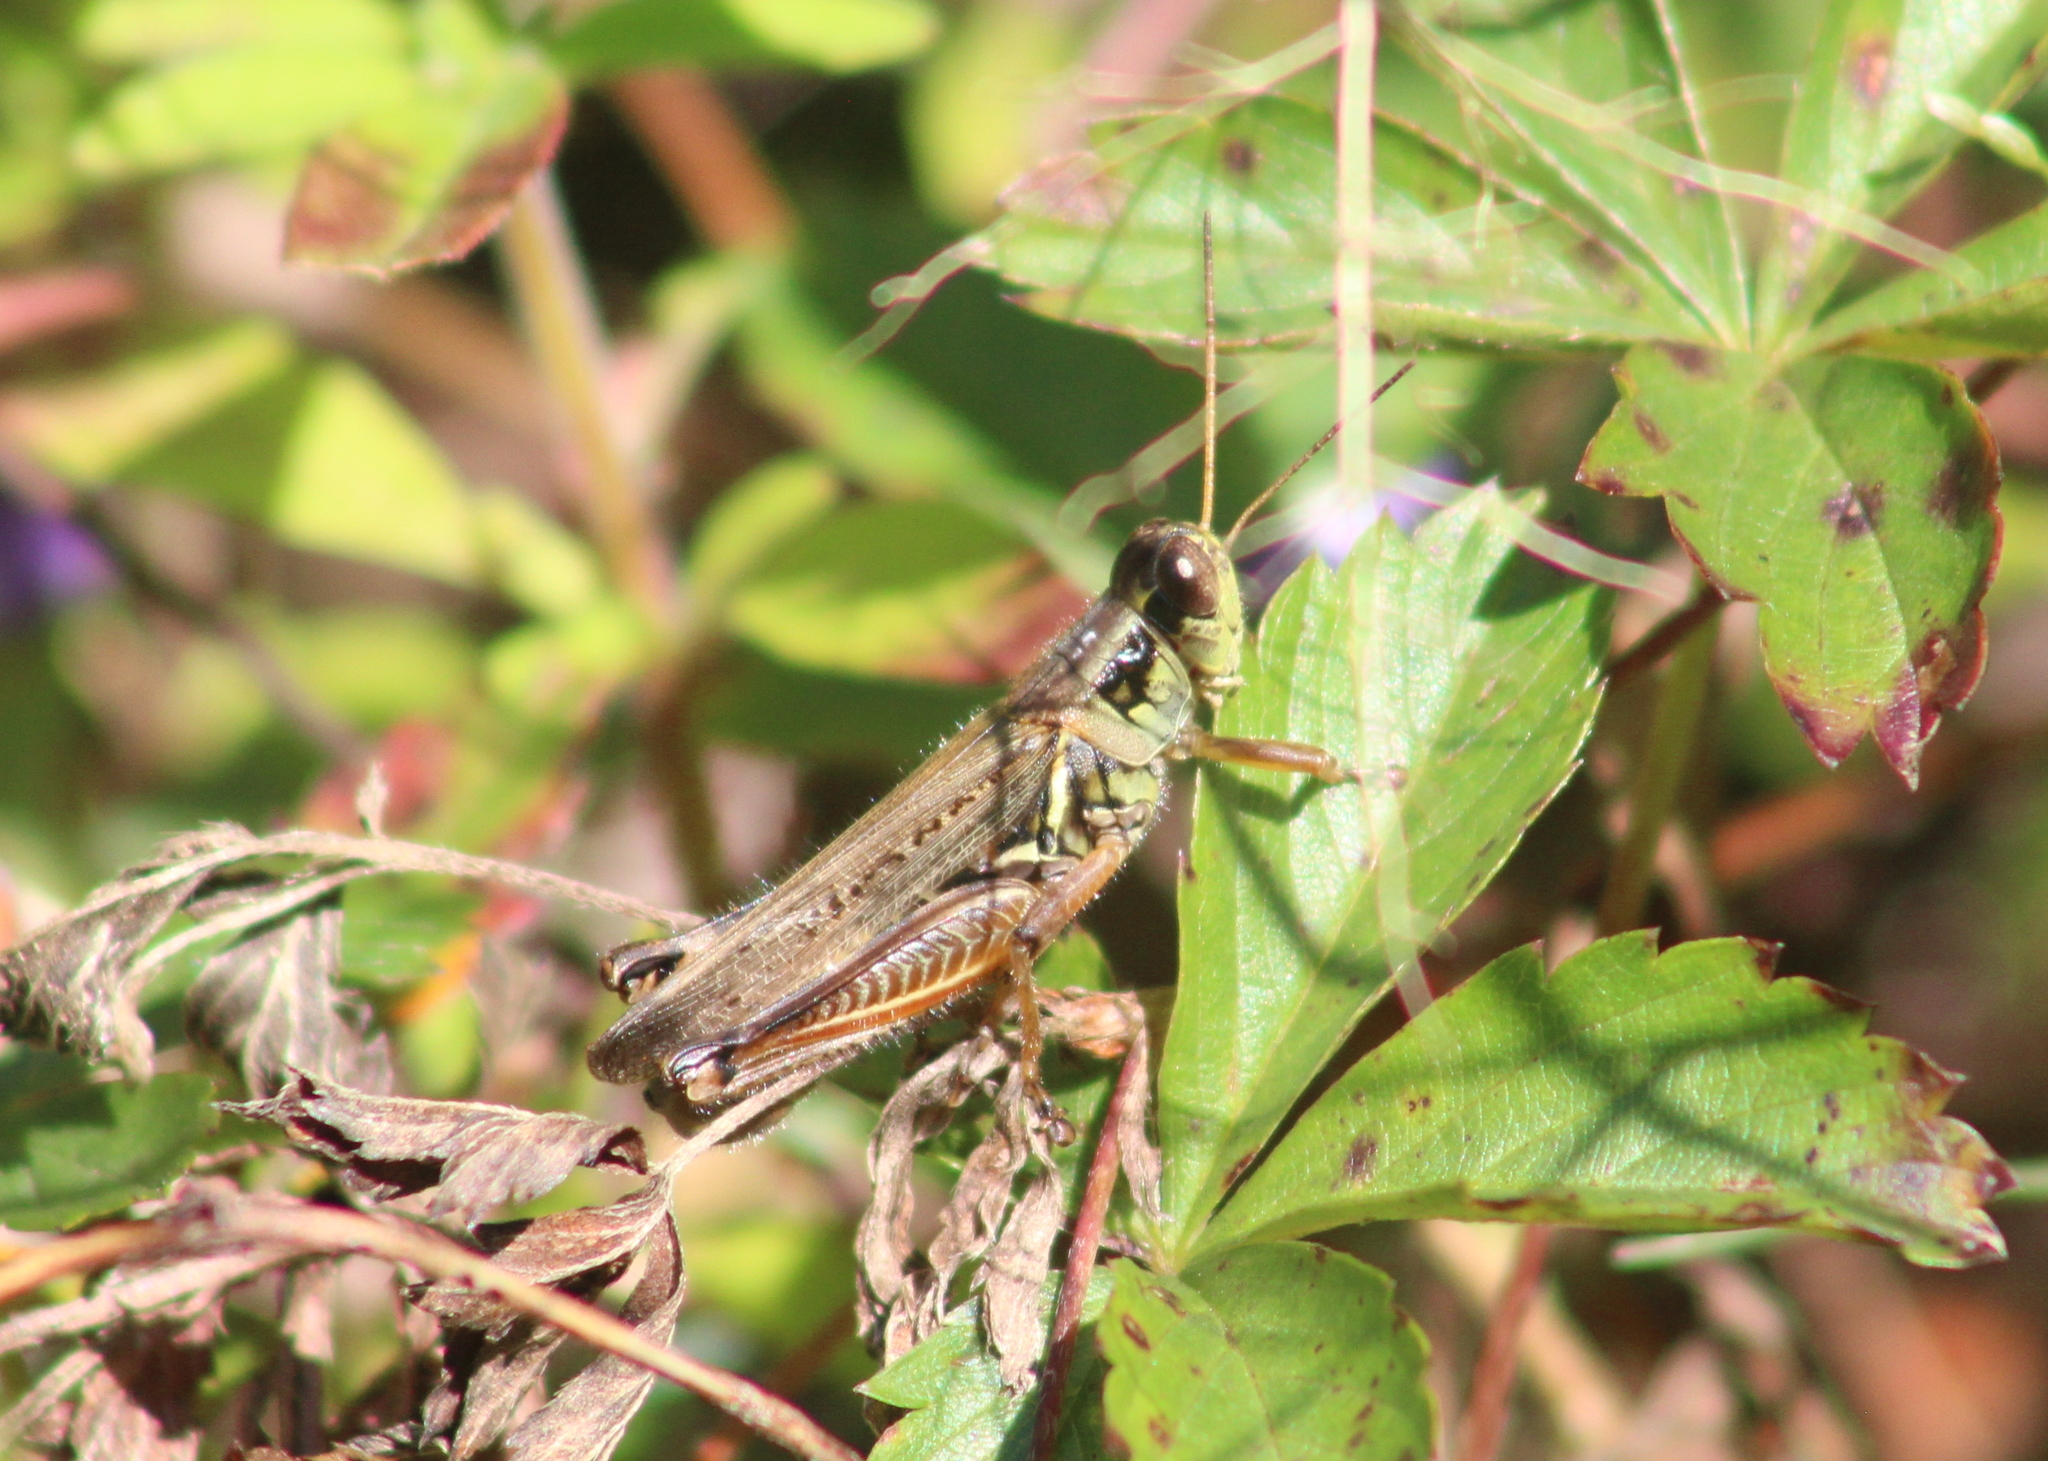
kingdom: Animalia
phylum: Arthropoda
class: Insecta
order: Orthoptera
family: Acrididae
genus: Melanoplus
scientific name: Melanoplus femurrubrum
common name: Red-legged grasshopper
